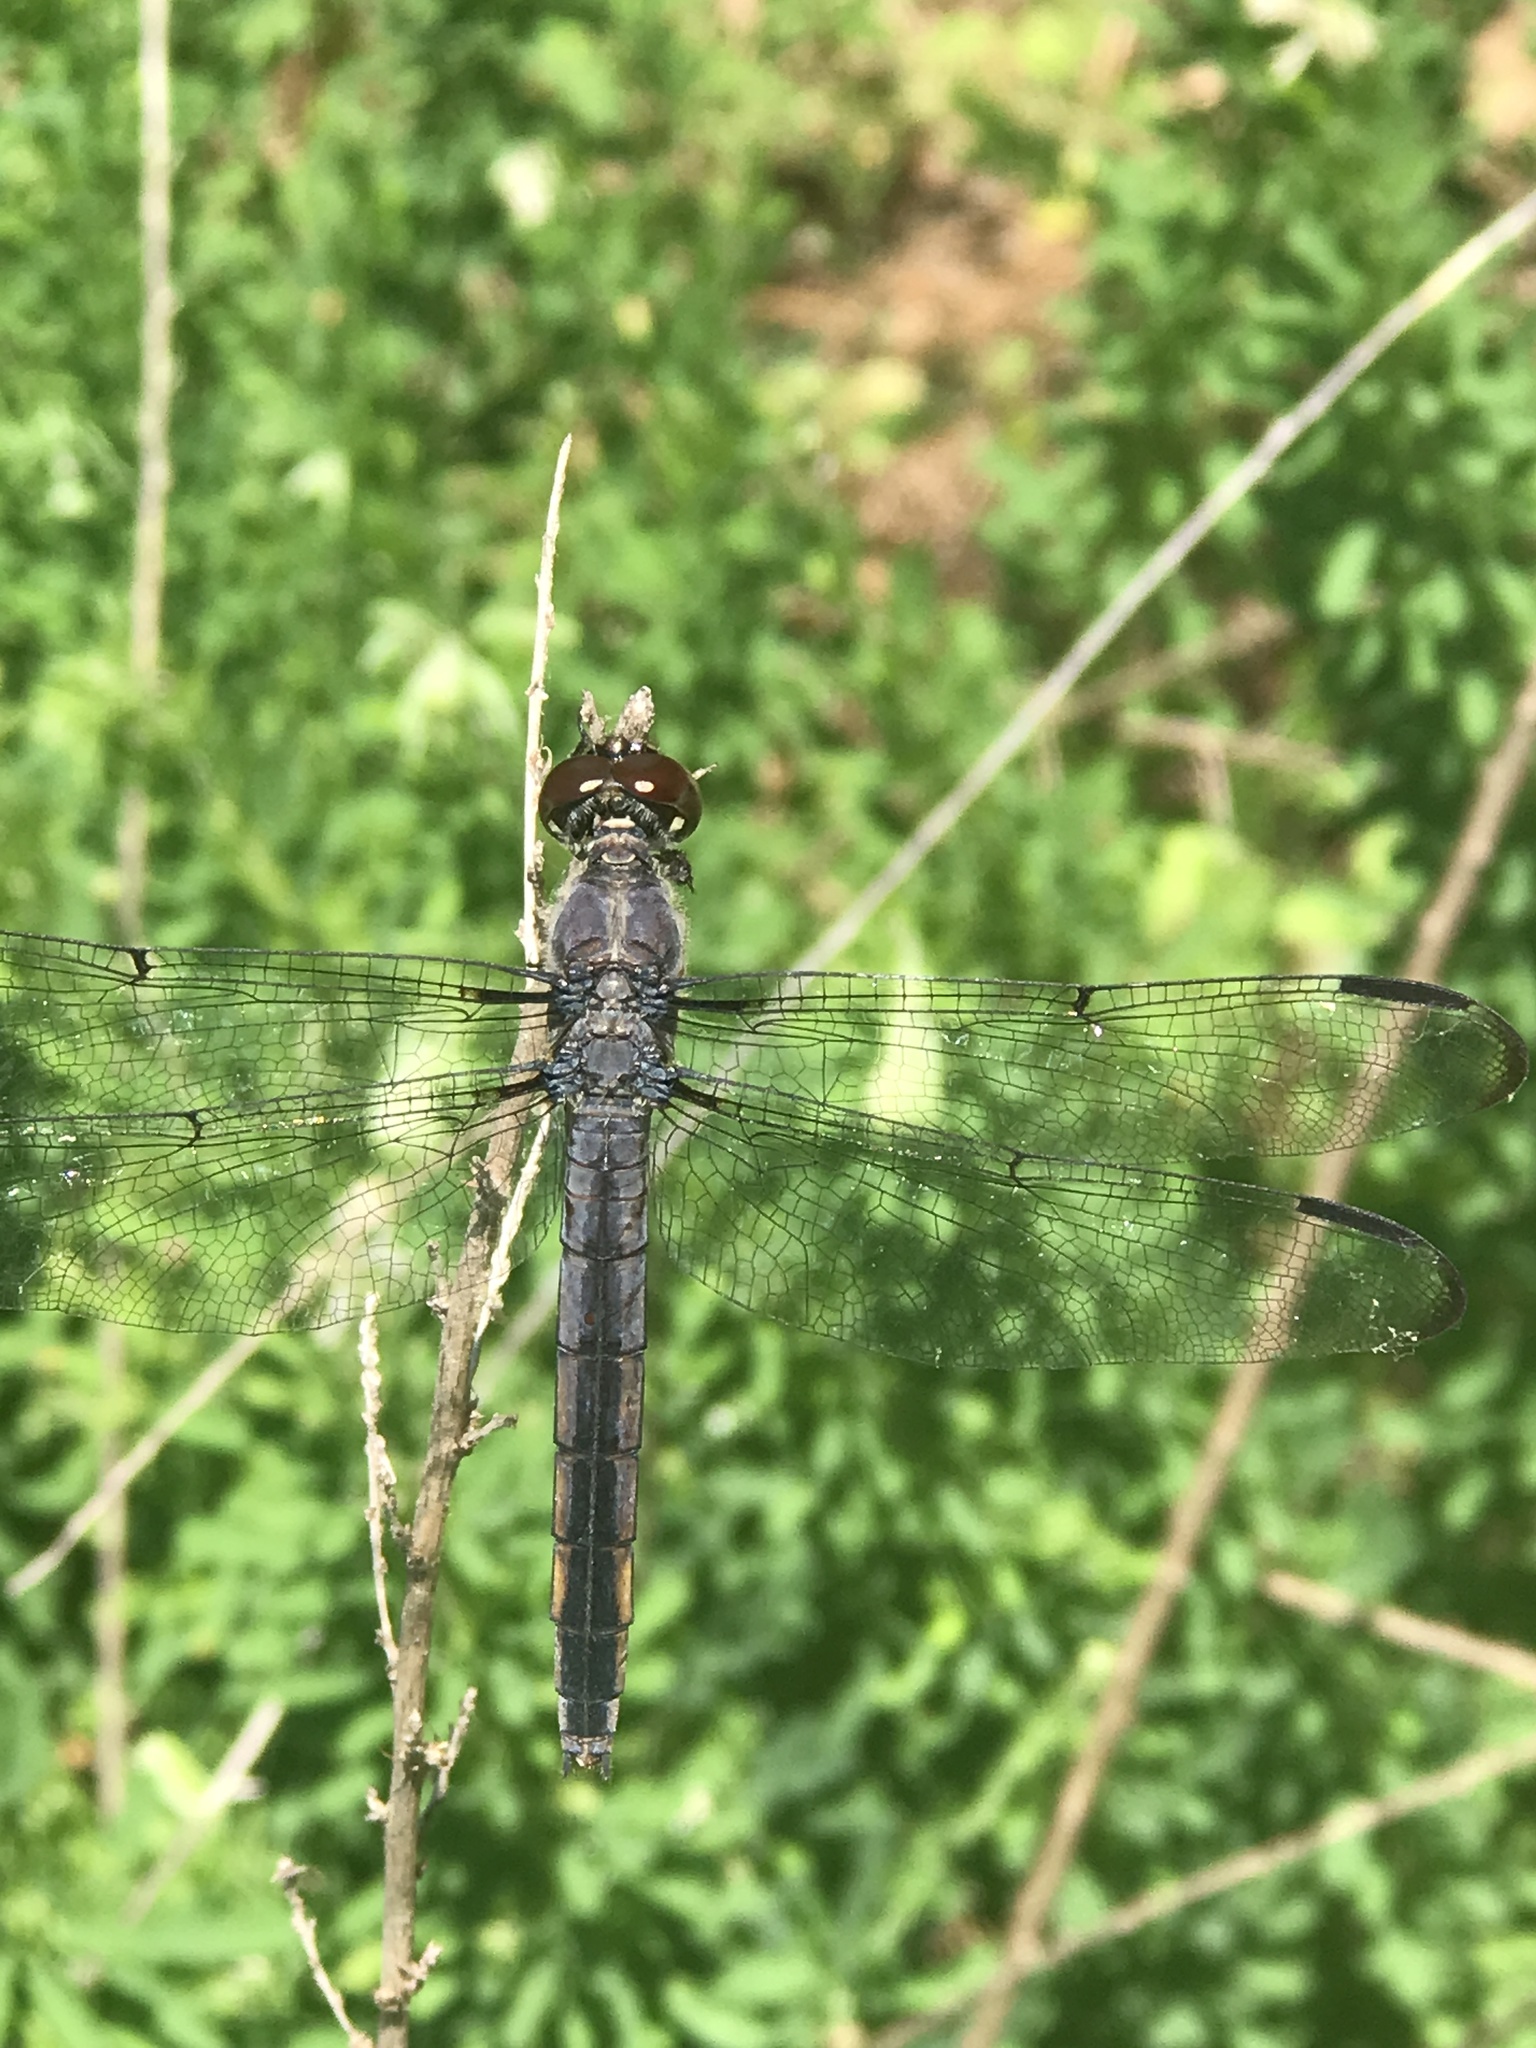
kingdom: Animalia
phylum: Arthropoda
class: Insecta
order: Odonata
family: Libellulidae
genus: Libellula
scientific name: Libellula incesta
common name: Slaty skimmer
